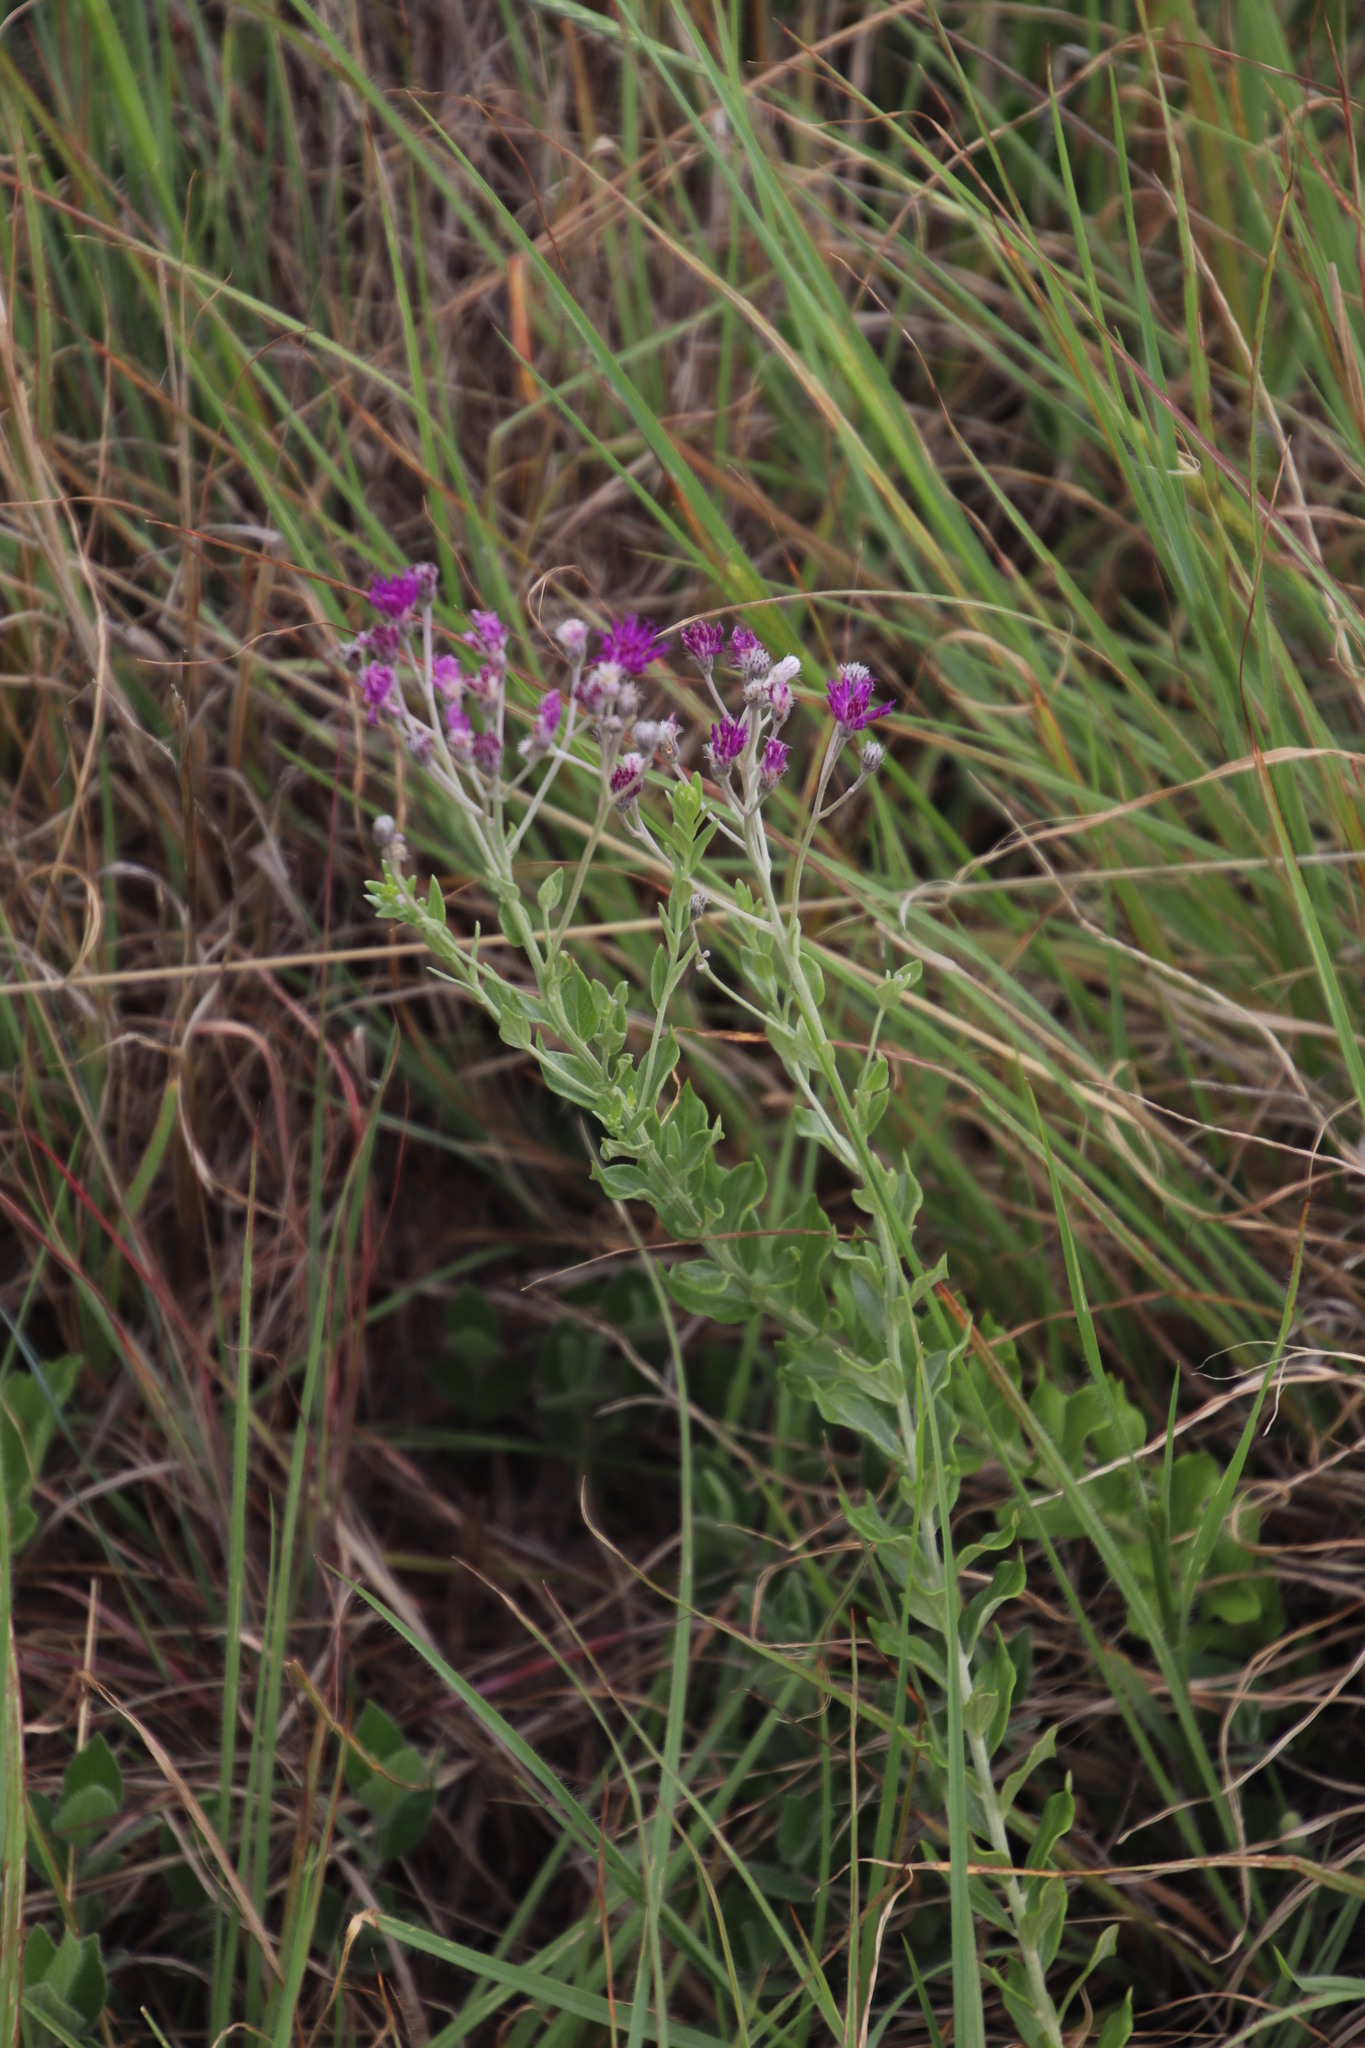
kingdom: Plantae
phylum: Tracheophyta
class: Magnoliopsida
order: Asterales
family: Asteraceae
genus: Hilliardiella
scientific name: Hilliardiella oligocephala
